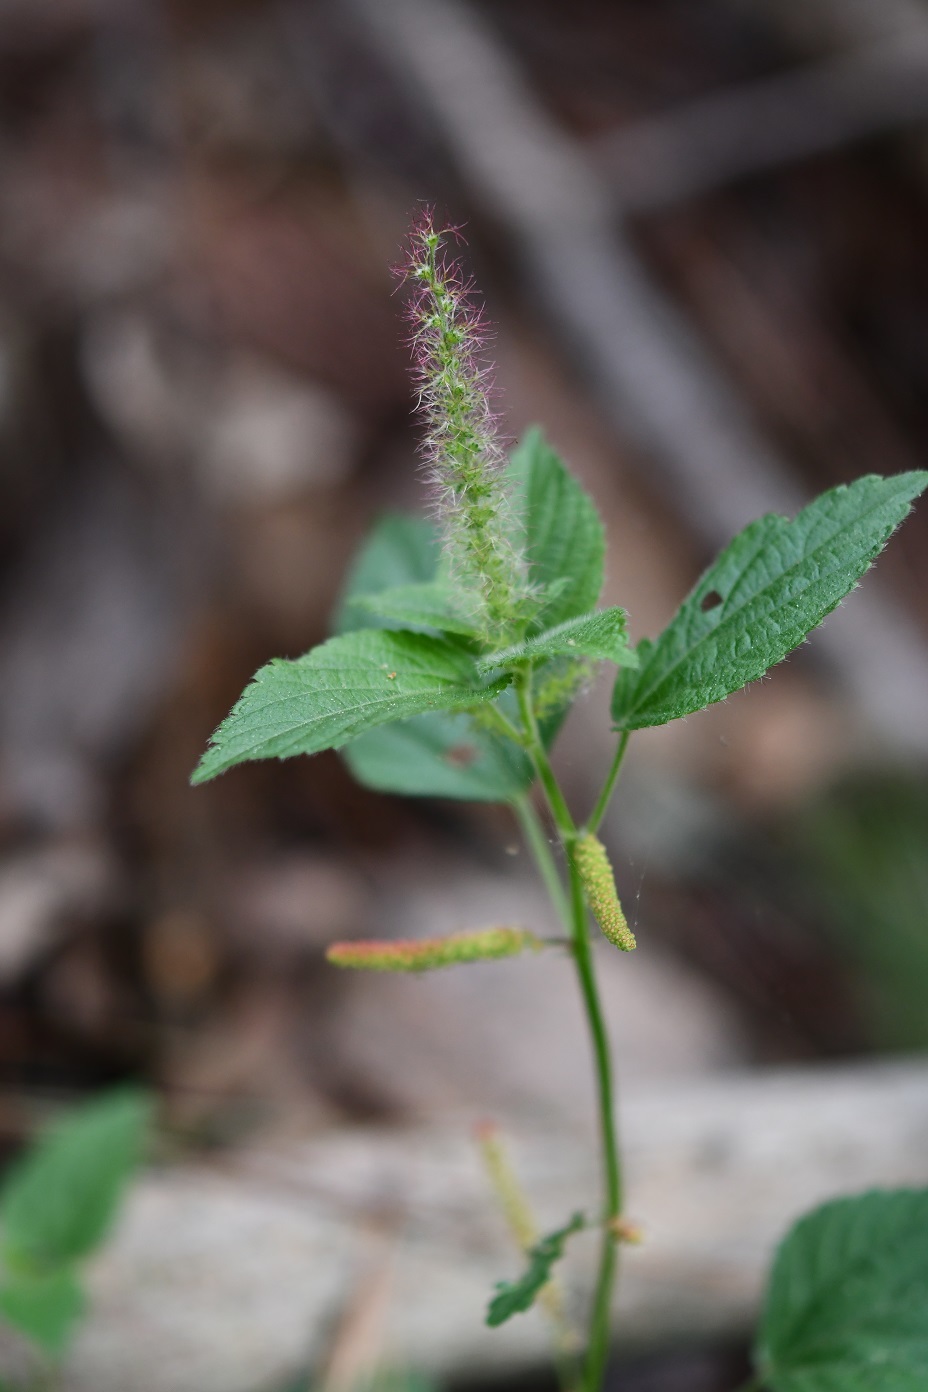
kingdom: Plantae
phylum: Tracheophyta
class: Magnoliopsida
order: Malpighiales
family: Euphorbiaceae
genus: Acalypha
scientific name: Acalypha phleoides
